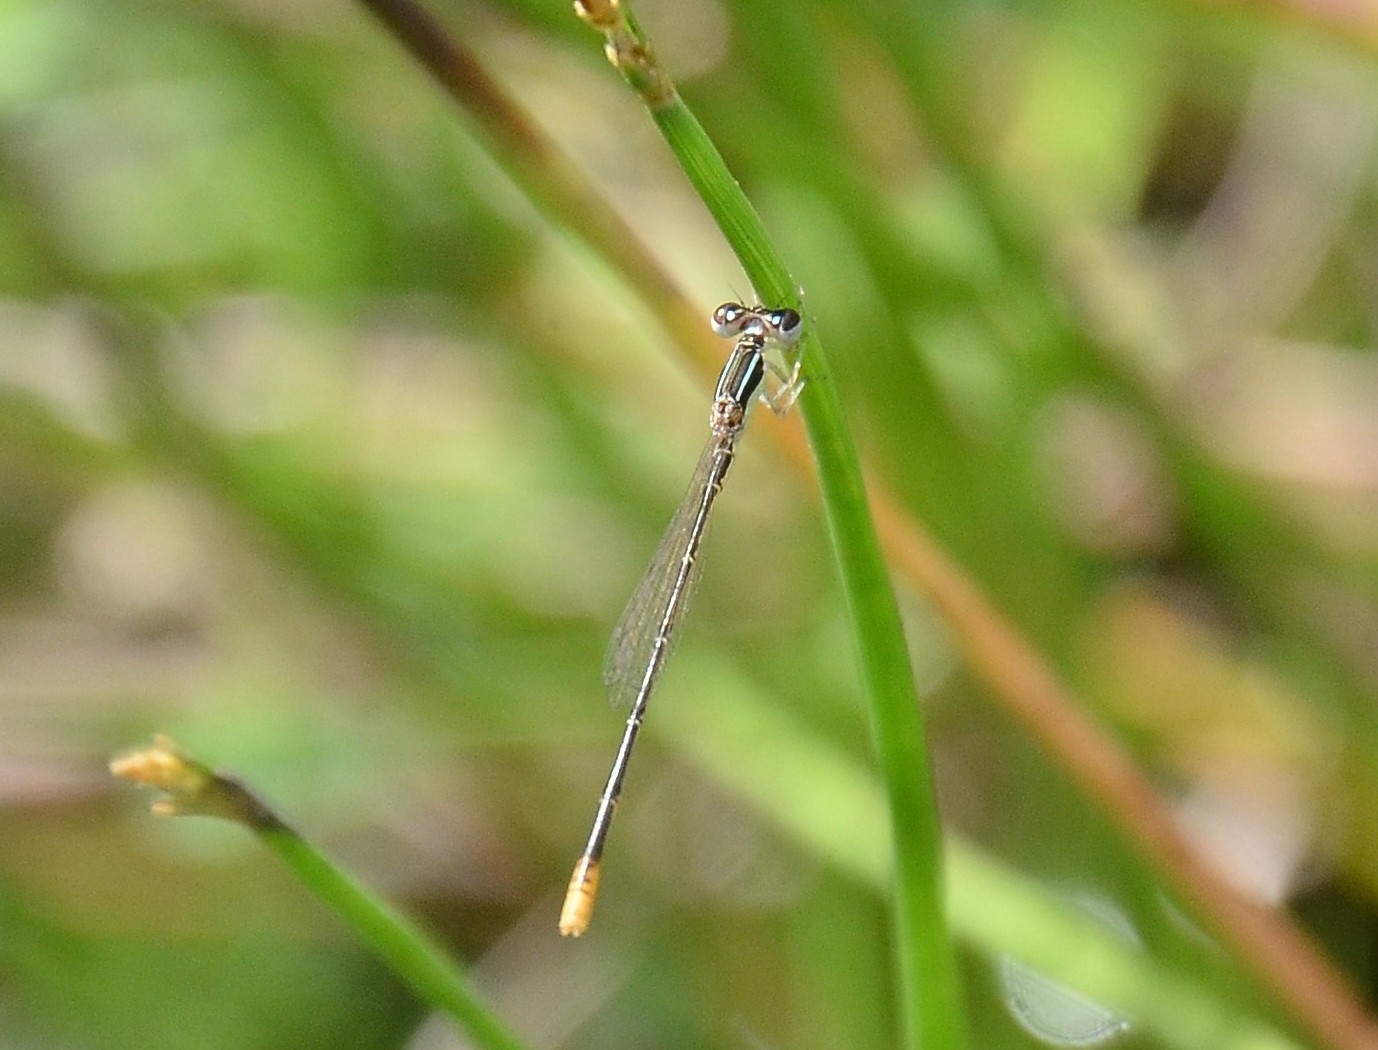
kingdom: Animalia
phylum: Arthropoda
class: Insecta
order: Odonata
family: Coenagrionidae
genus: Agriocnemis
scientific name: Agriocnemis pygmaea
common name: Pygmy wisp
